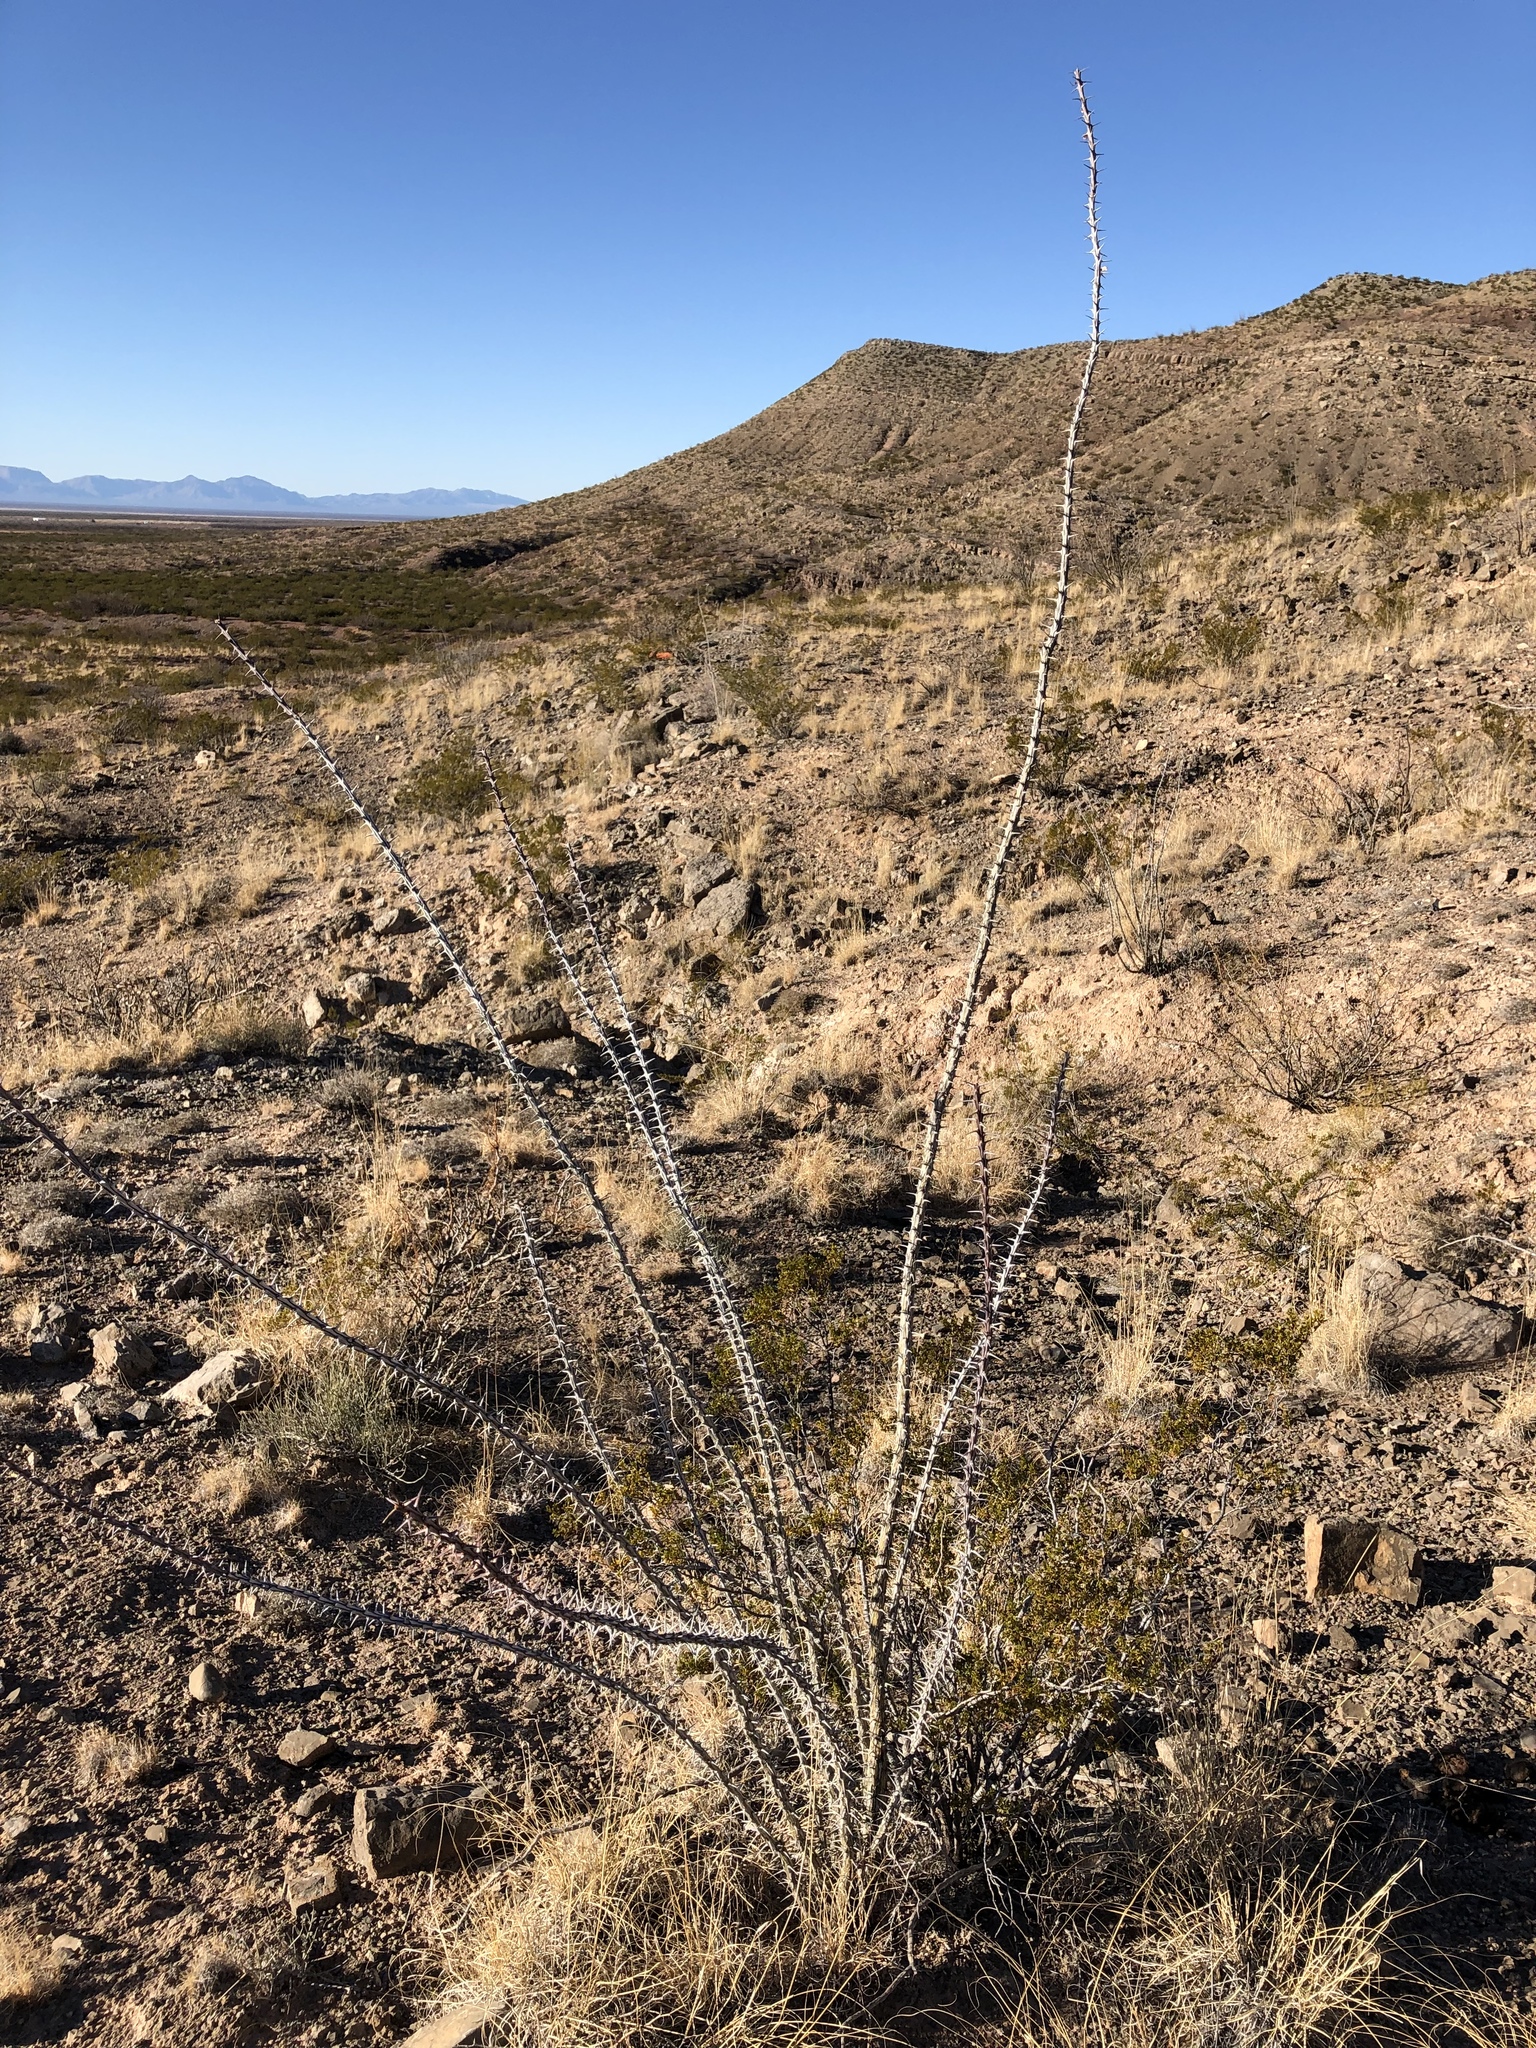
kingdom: Plantae
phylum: Tracheophyta
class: Magnoliopsida
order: Ericales
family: Fouquieriaceae
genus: Fouquieria
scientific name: Fouquieria splendens
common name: Vine-cactus
